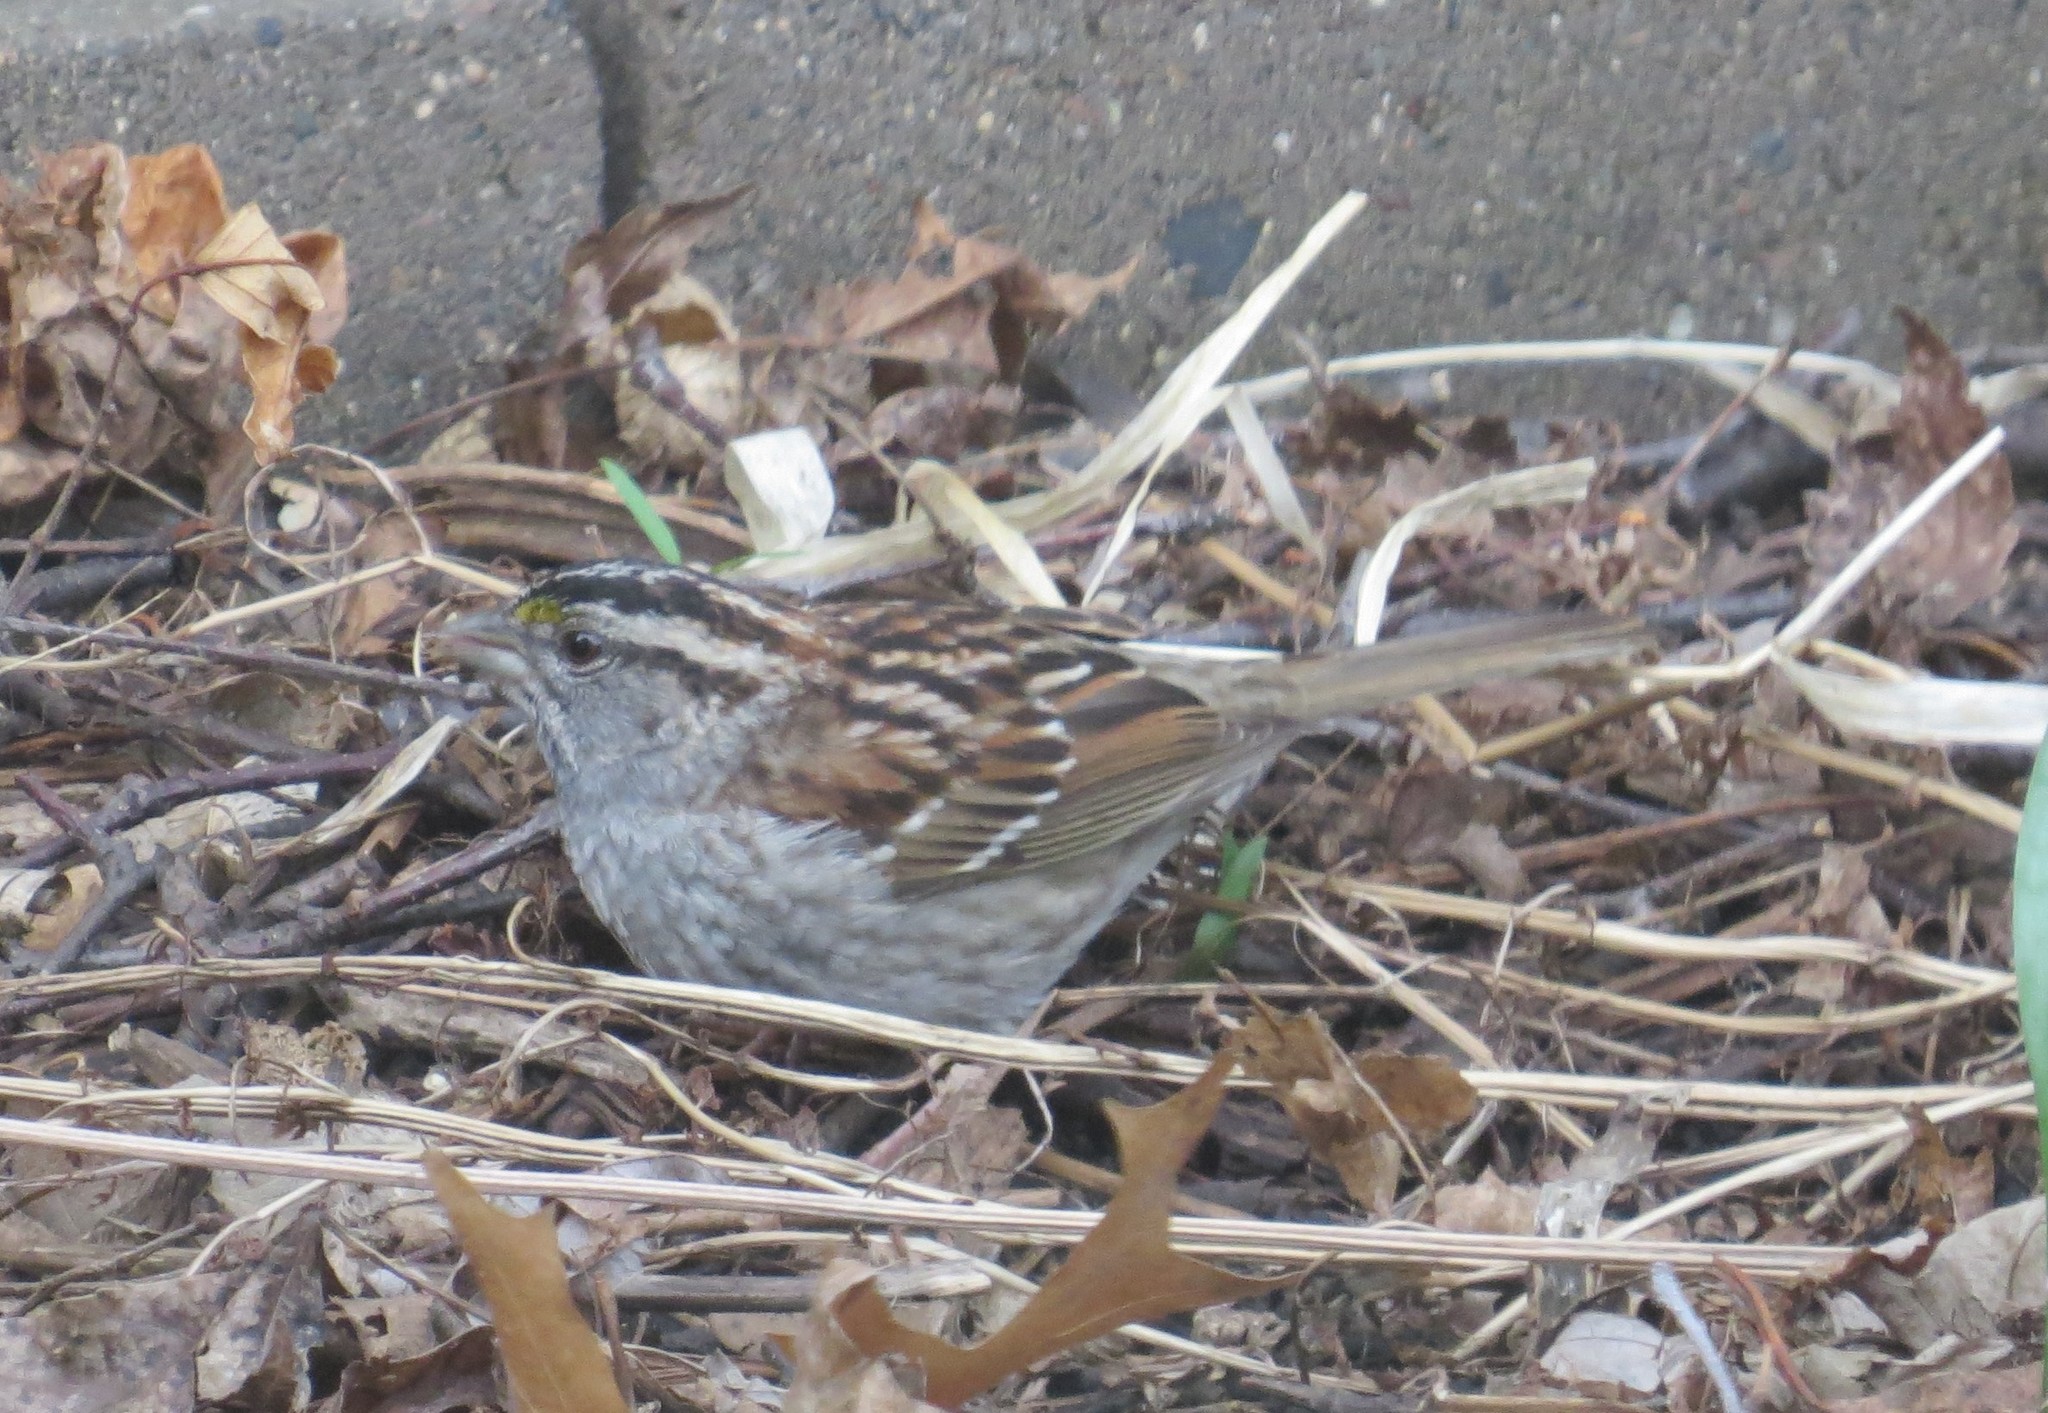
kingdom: Animalia
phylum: Chordata
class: Aves
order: Passeriformes
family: Passerellidae
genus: Zonotrichia
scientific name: Zonotrichia albicollis
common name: White-throated sparrow
